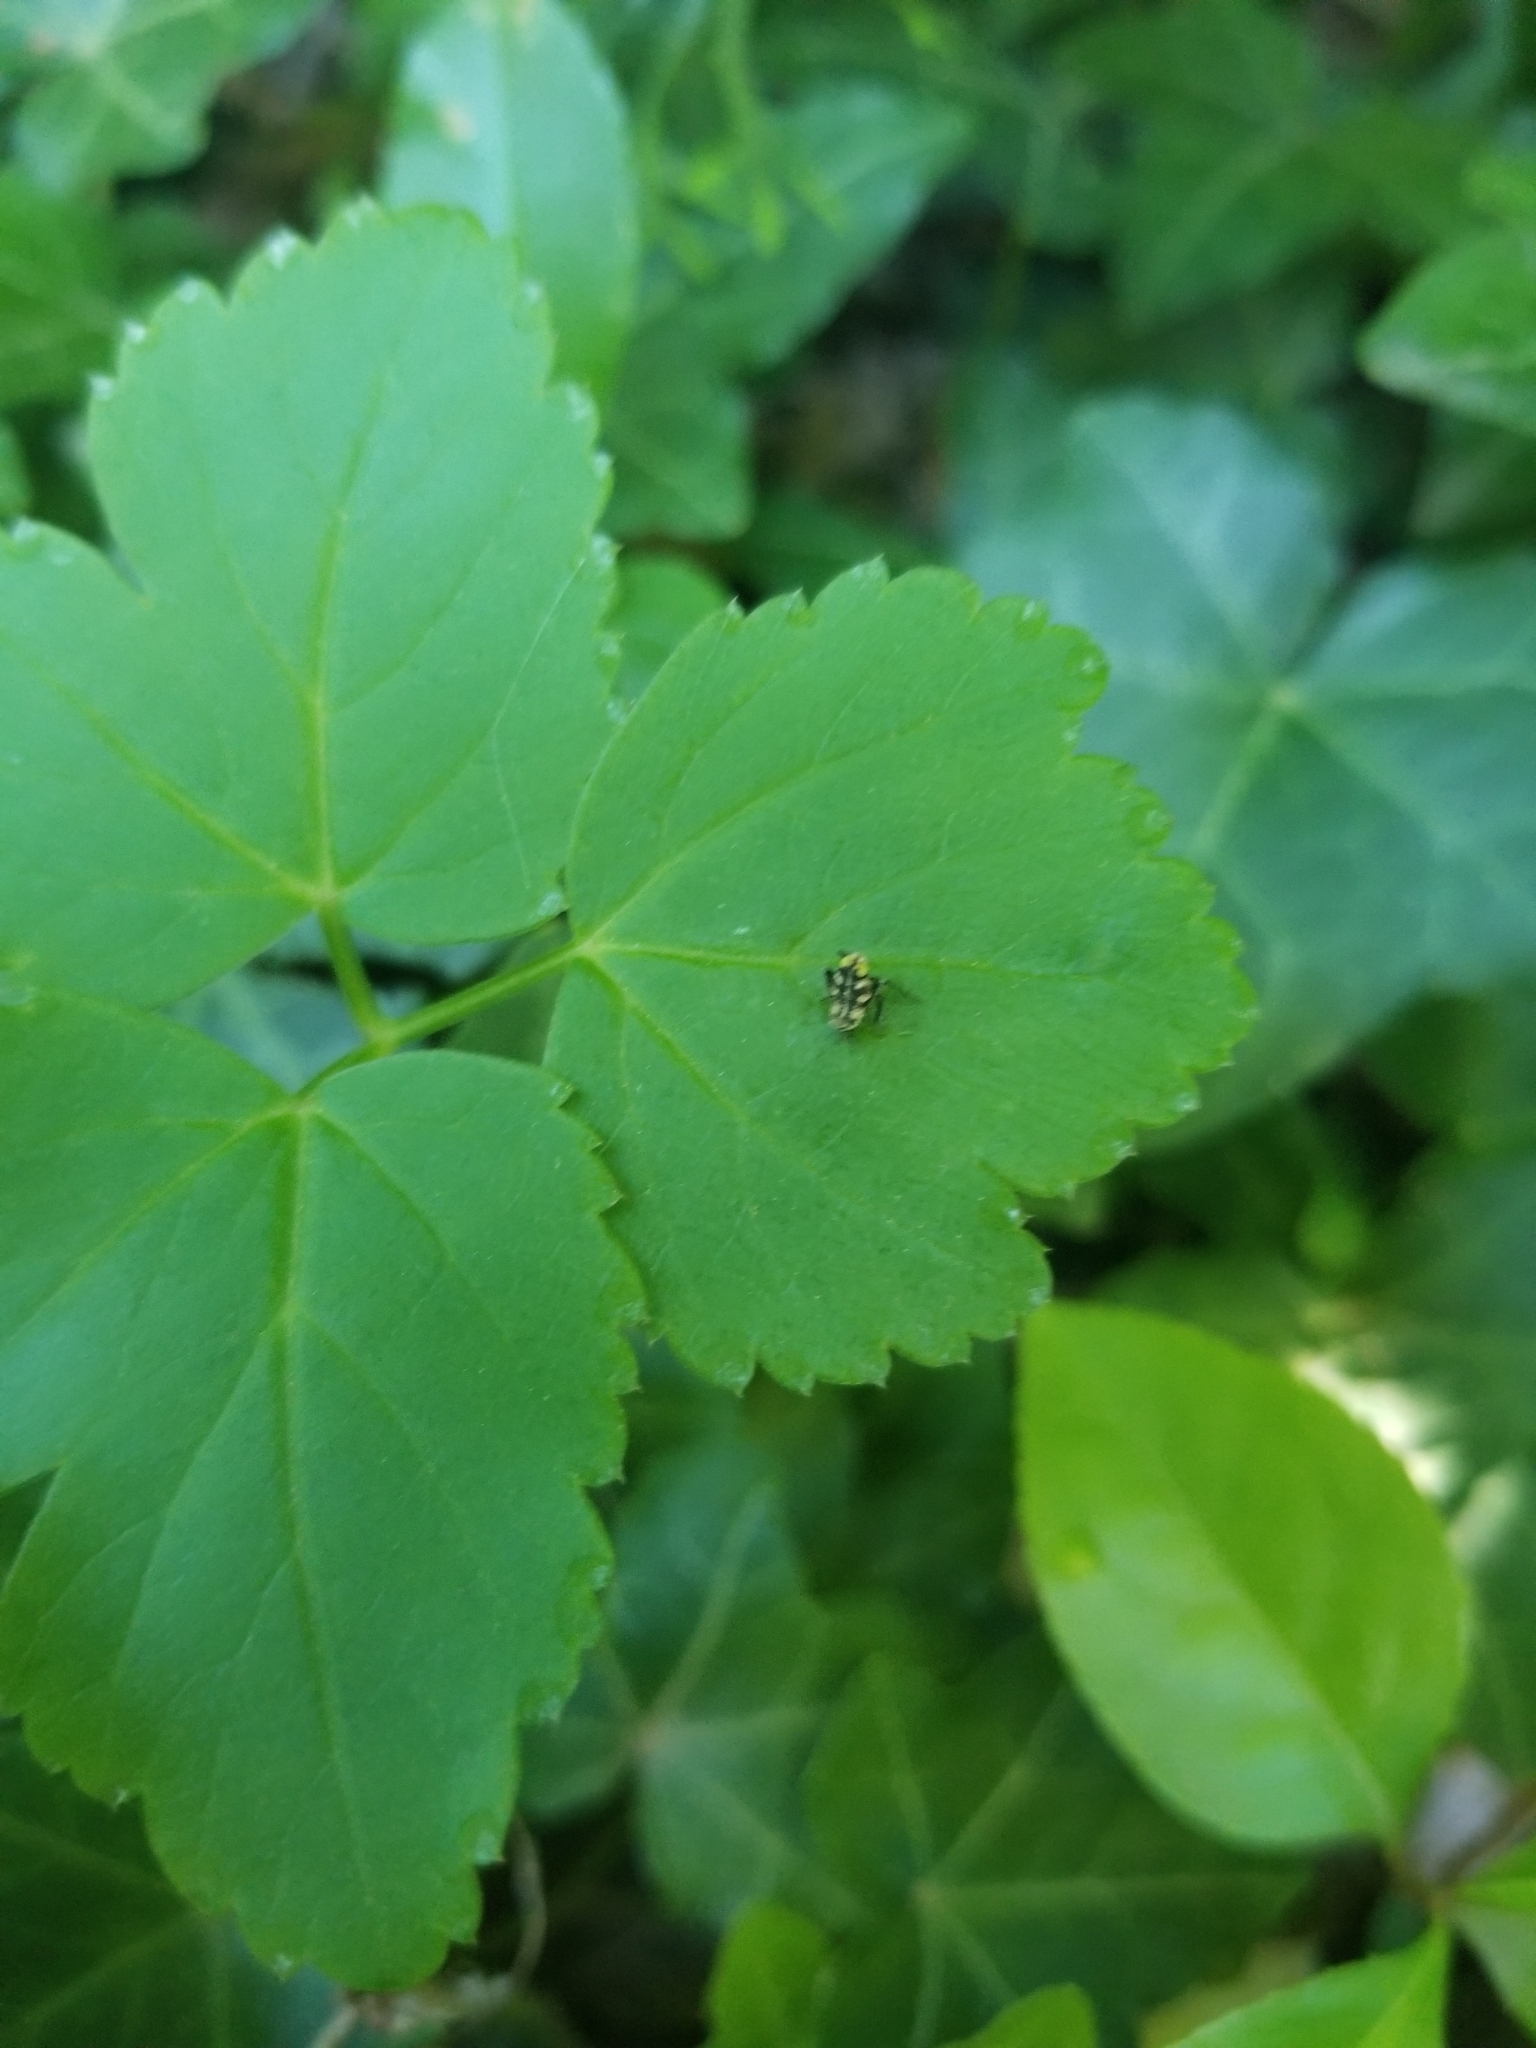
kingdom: Animalia
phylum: Arthropoda
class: Insecta
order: Hemiptera
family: Cicadellidae
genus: Jikradia
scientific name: Jikradia olitoria
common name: Coppery leafhopper
